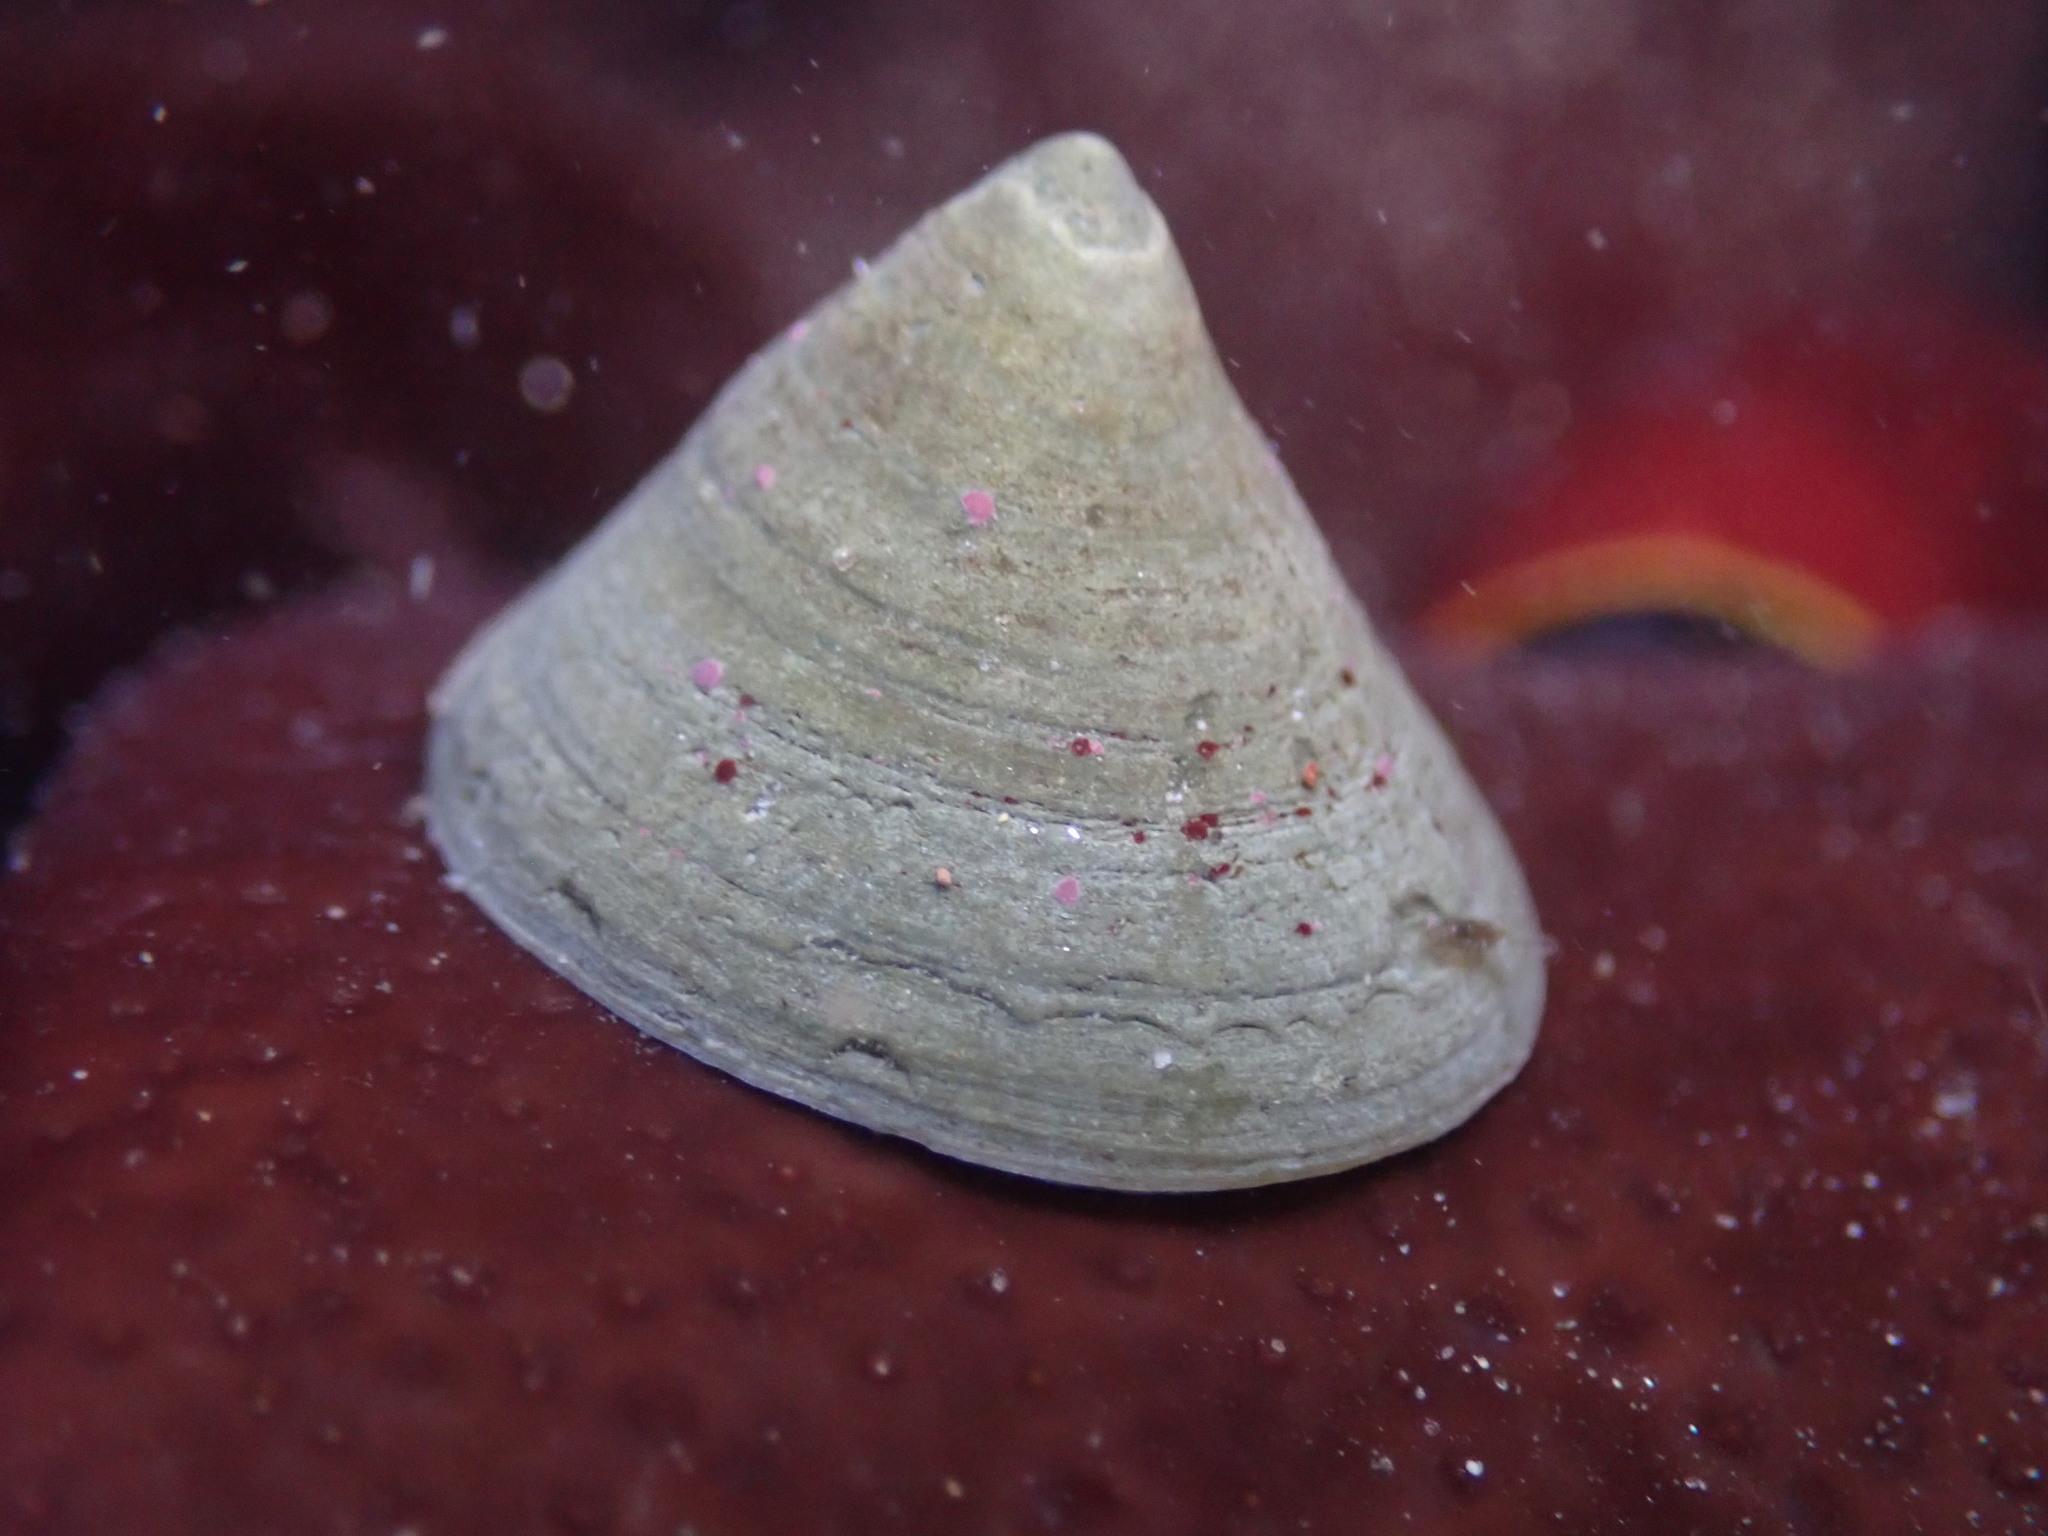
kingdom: Animalia
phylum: Mollusca
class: Gastropoda
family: Acmaeidae
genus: Acmaea
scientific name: Acmaea mitra
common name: Pacific white cap limpet
